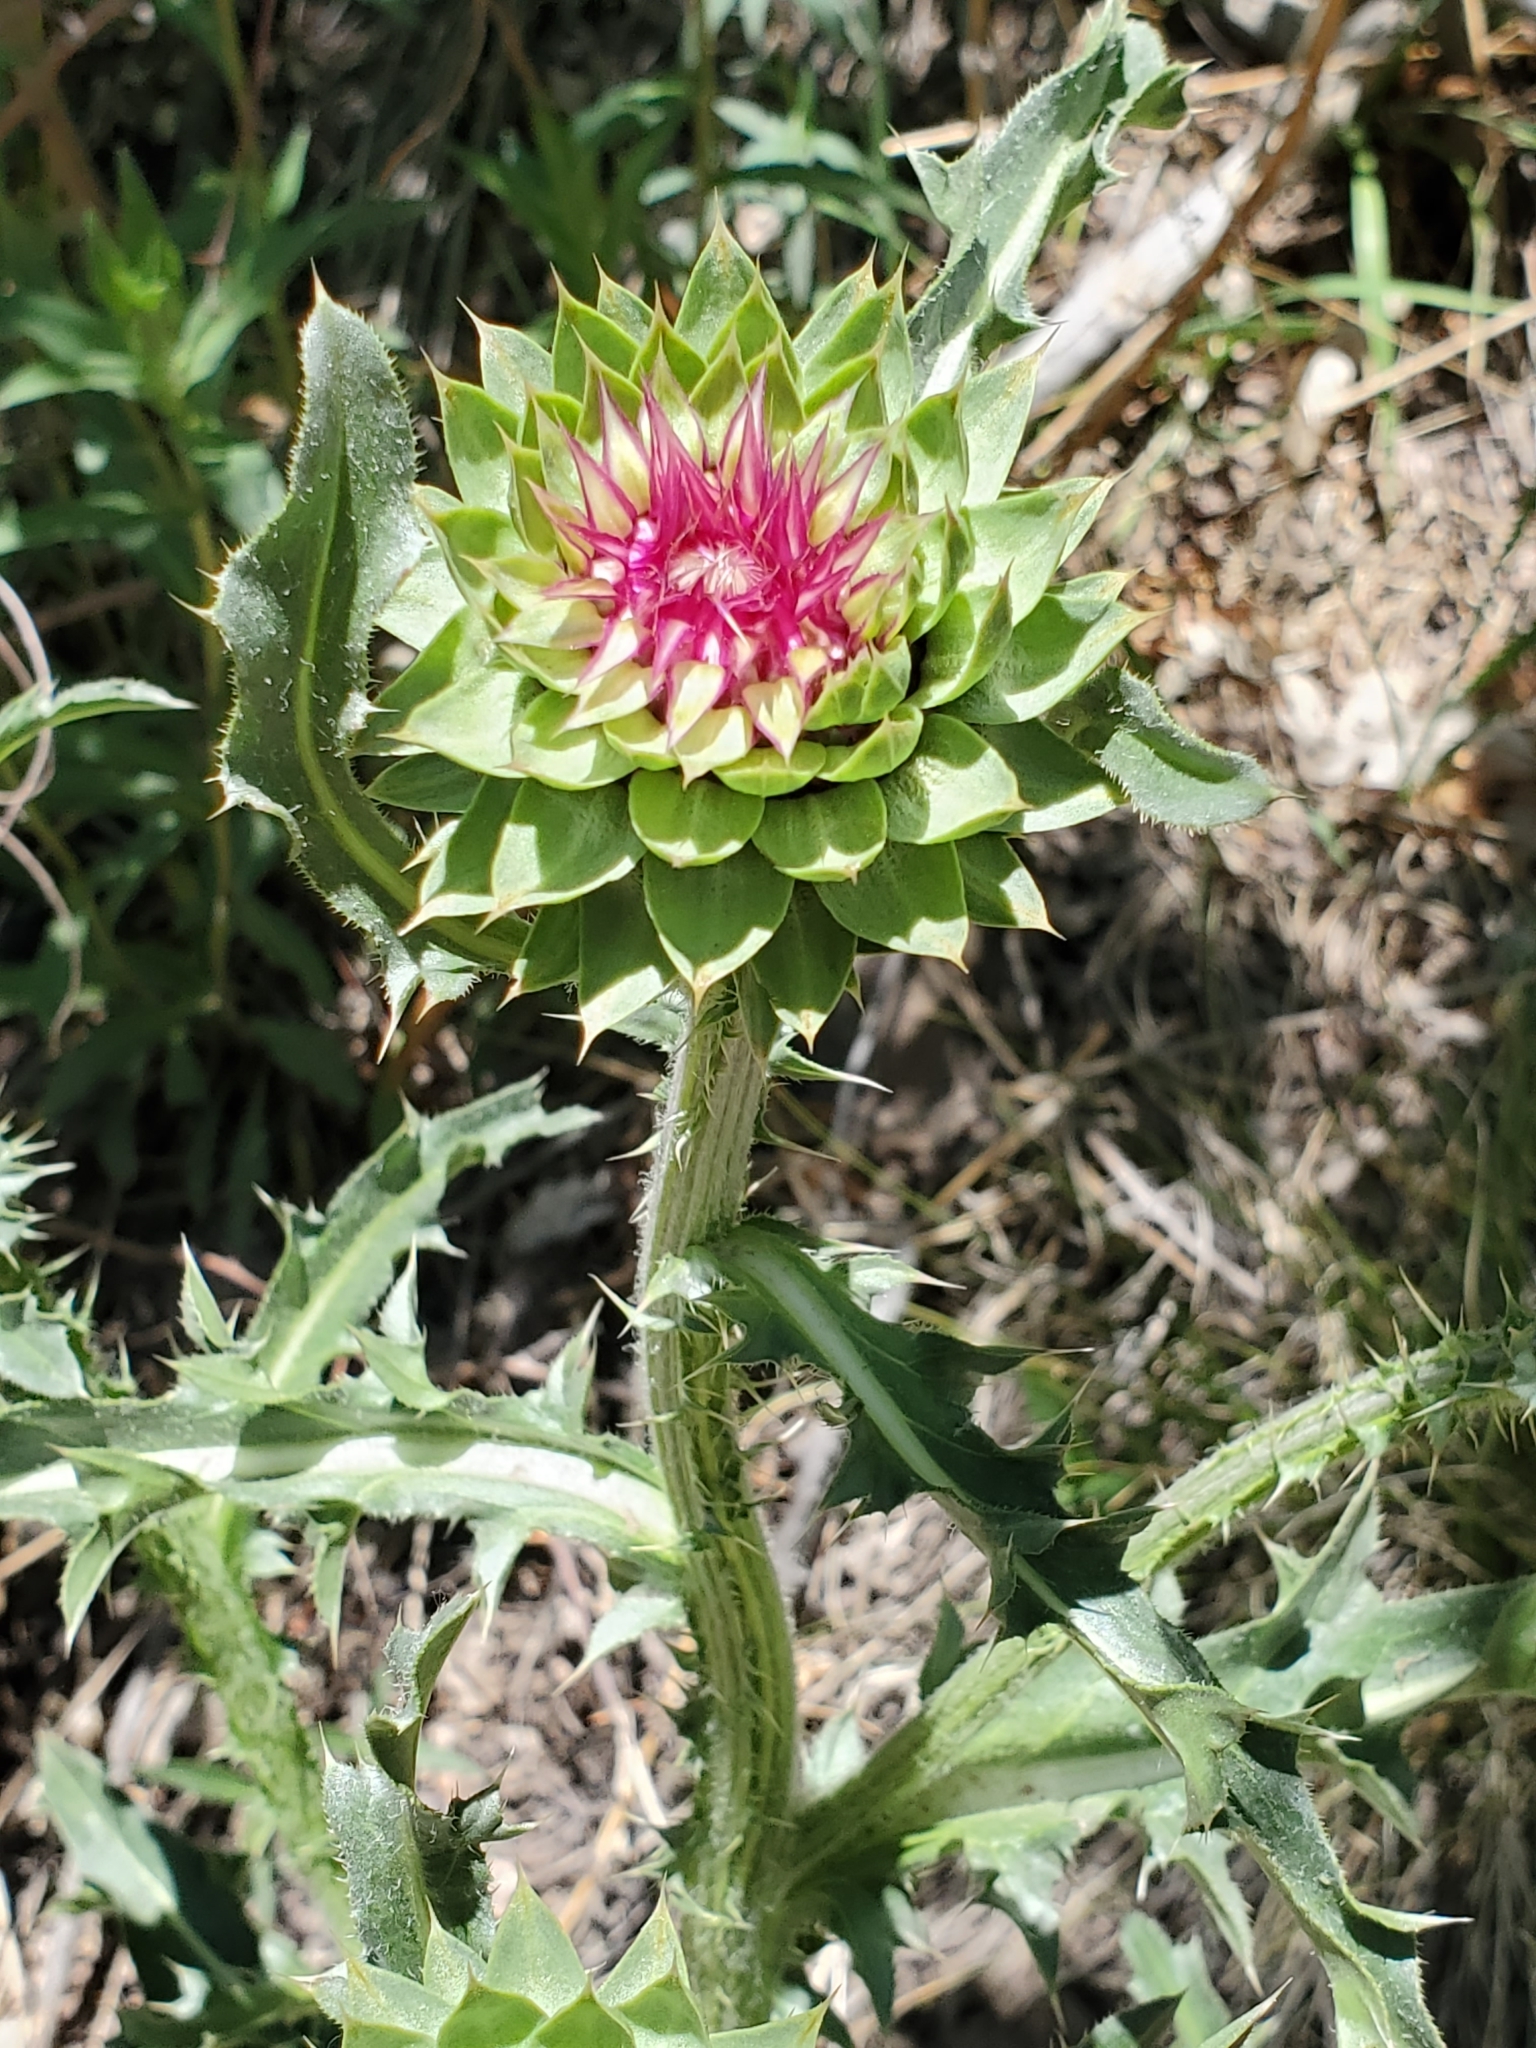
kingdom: Plantae
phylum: Tracheophyta
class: Magnoliopsida
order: Asterales
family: Asteraceae
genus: Carduus
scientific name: Carduus nutans
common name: Musk thistle
